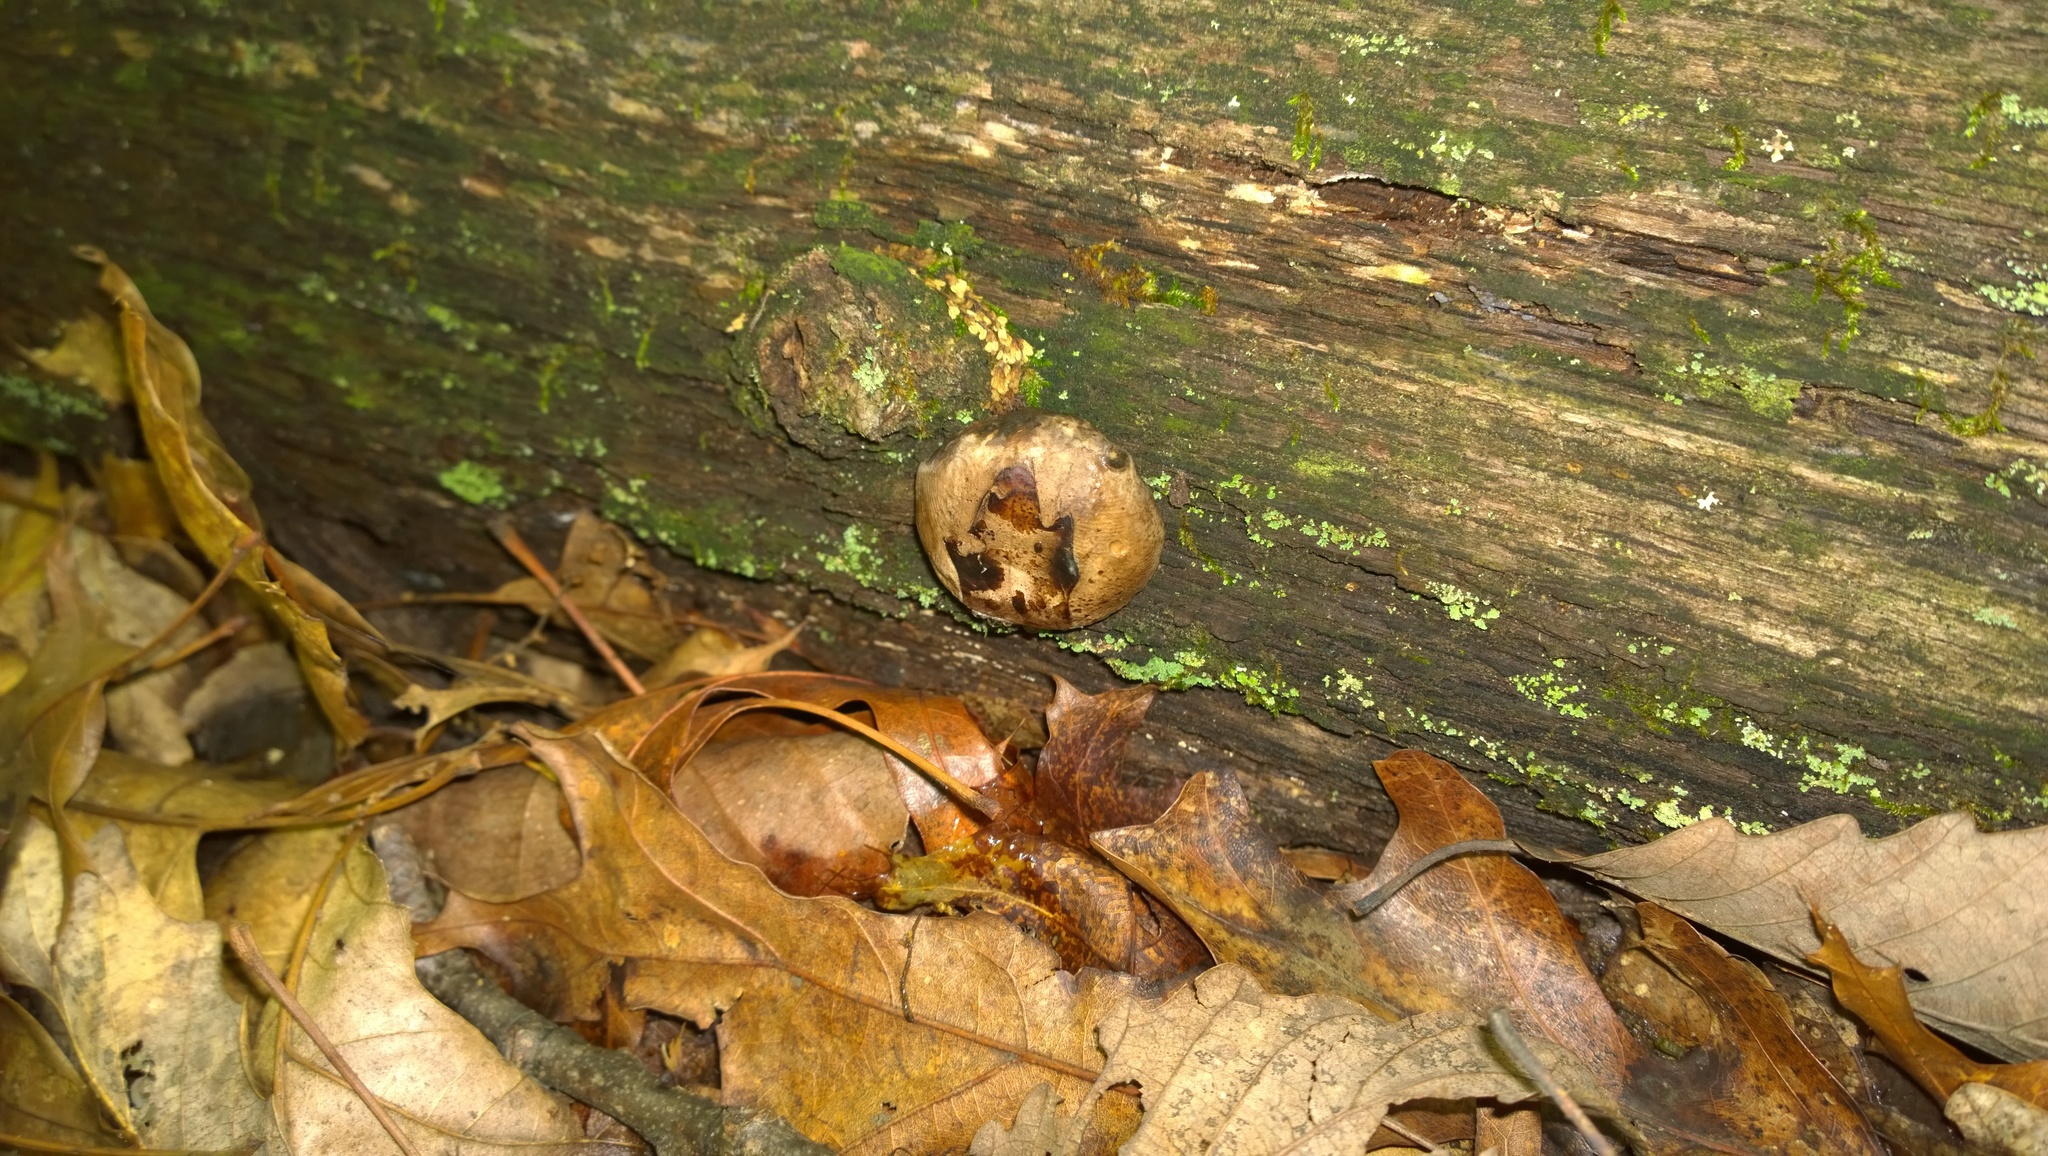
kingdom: Fungi
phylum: Ascomycota
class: Sordariomycetes
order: Boliniales
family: Boliniaceae
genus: Camarops
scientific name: Camarops petersii
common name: Dog's nose fungus
